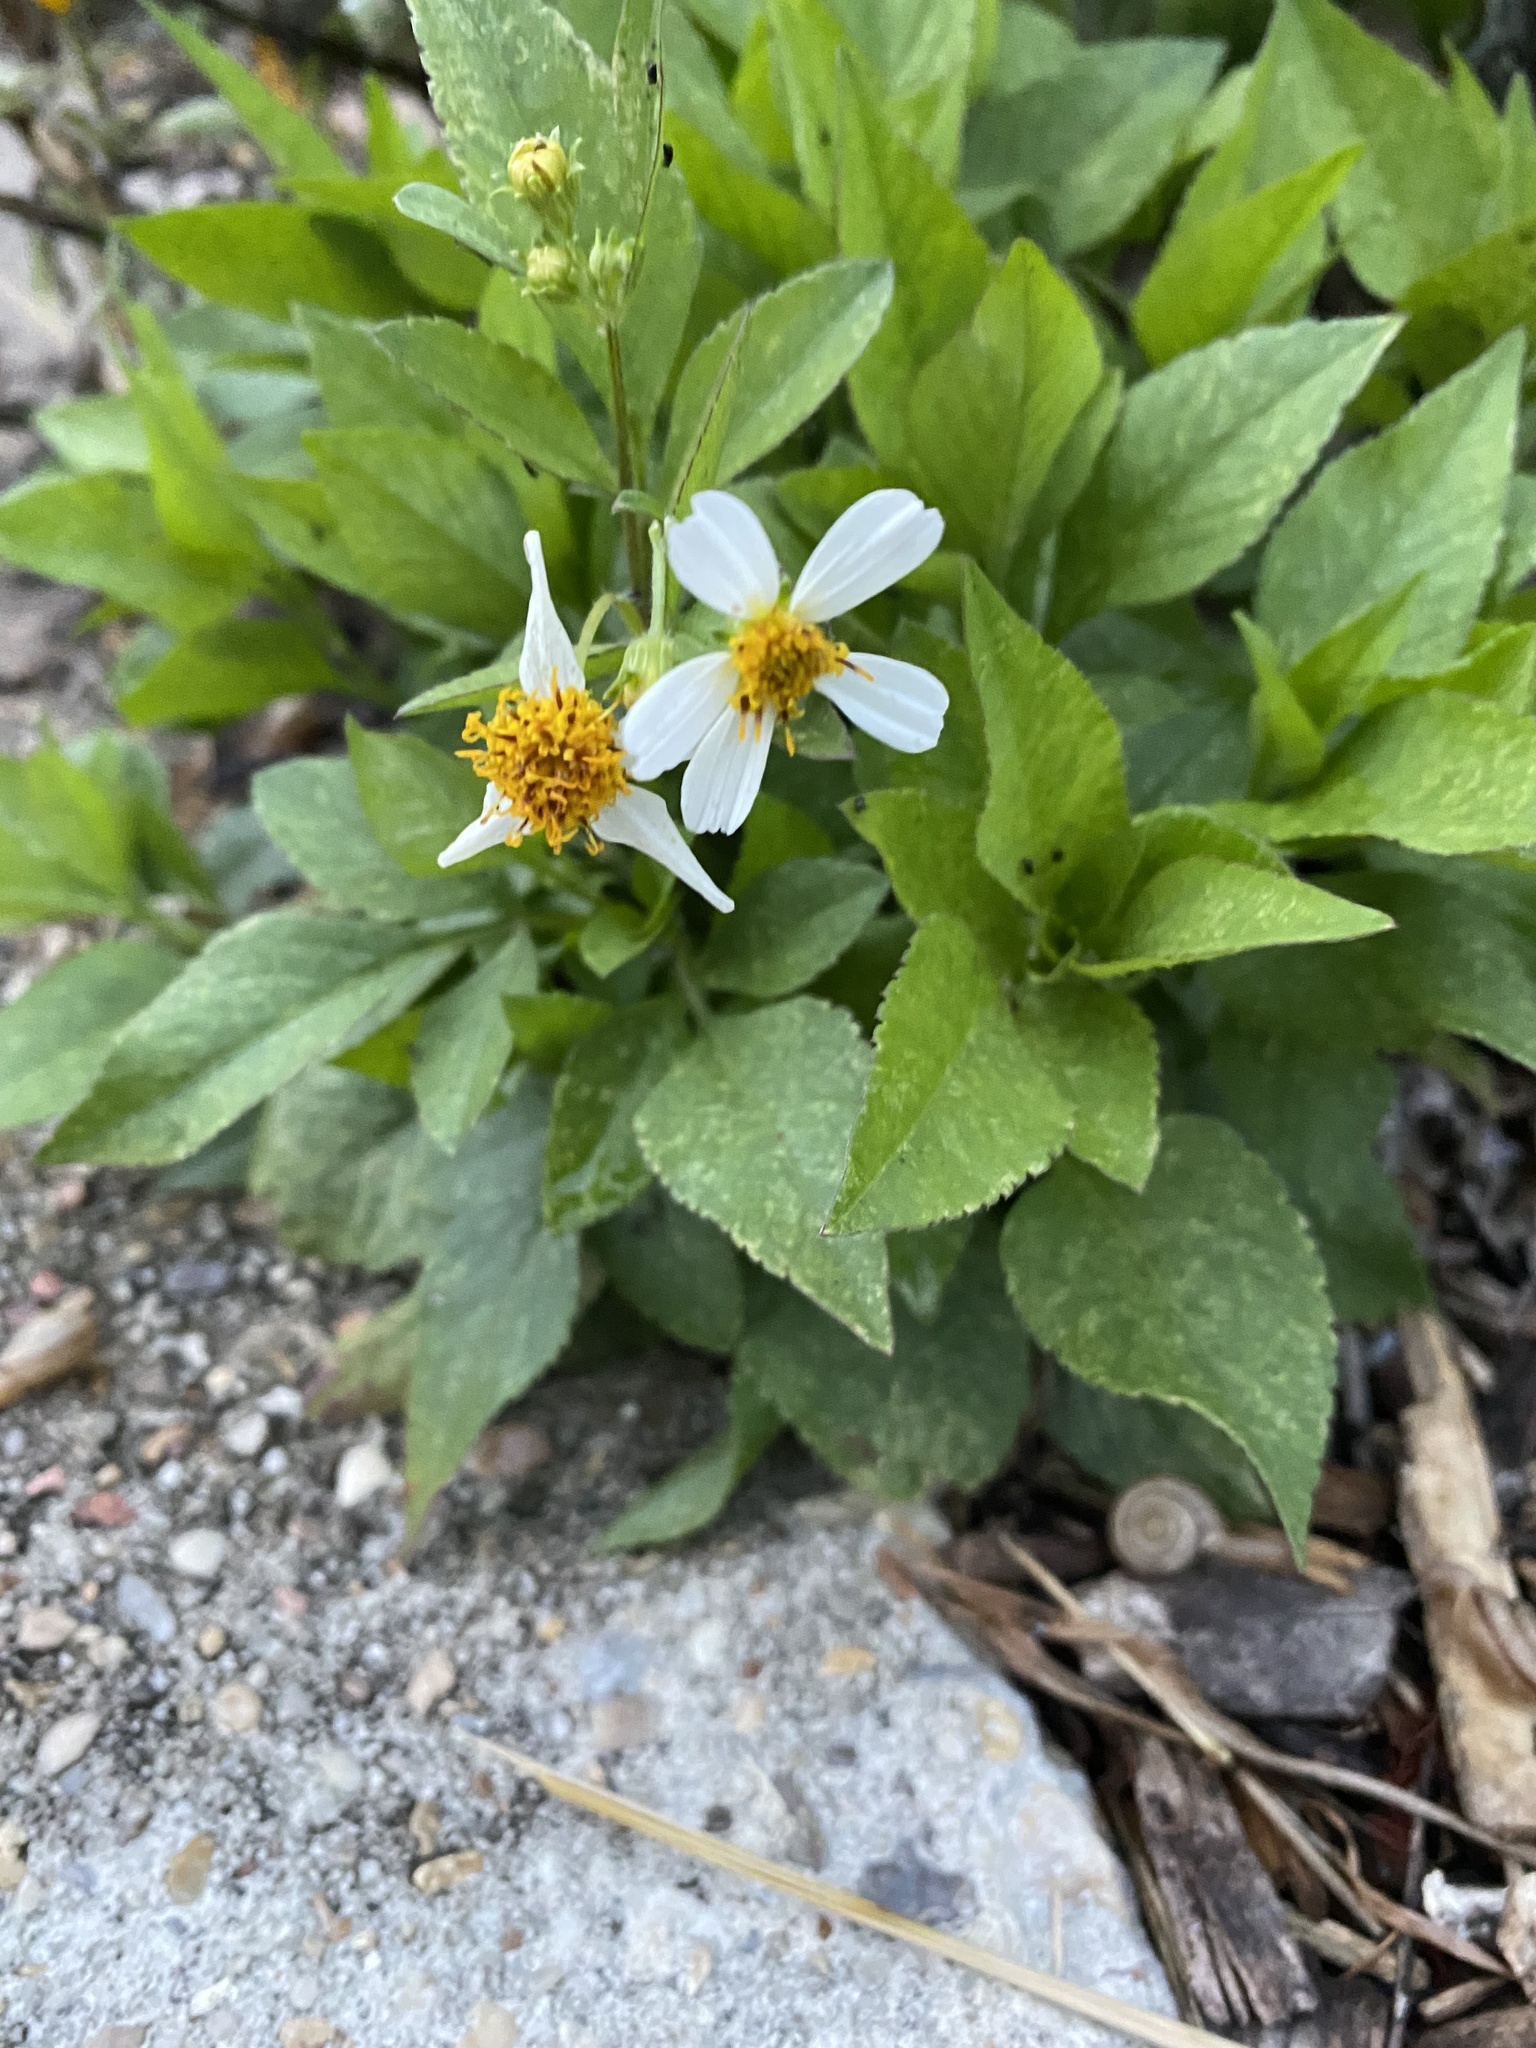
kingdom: Plantae
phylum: Tracheophyta
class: Magnoliopsida
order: Asterales
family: Asteraceae
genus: Bidens
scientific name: Bidens alba
